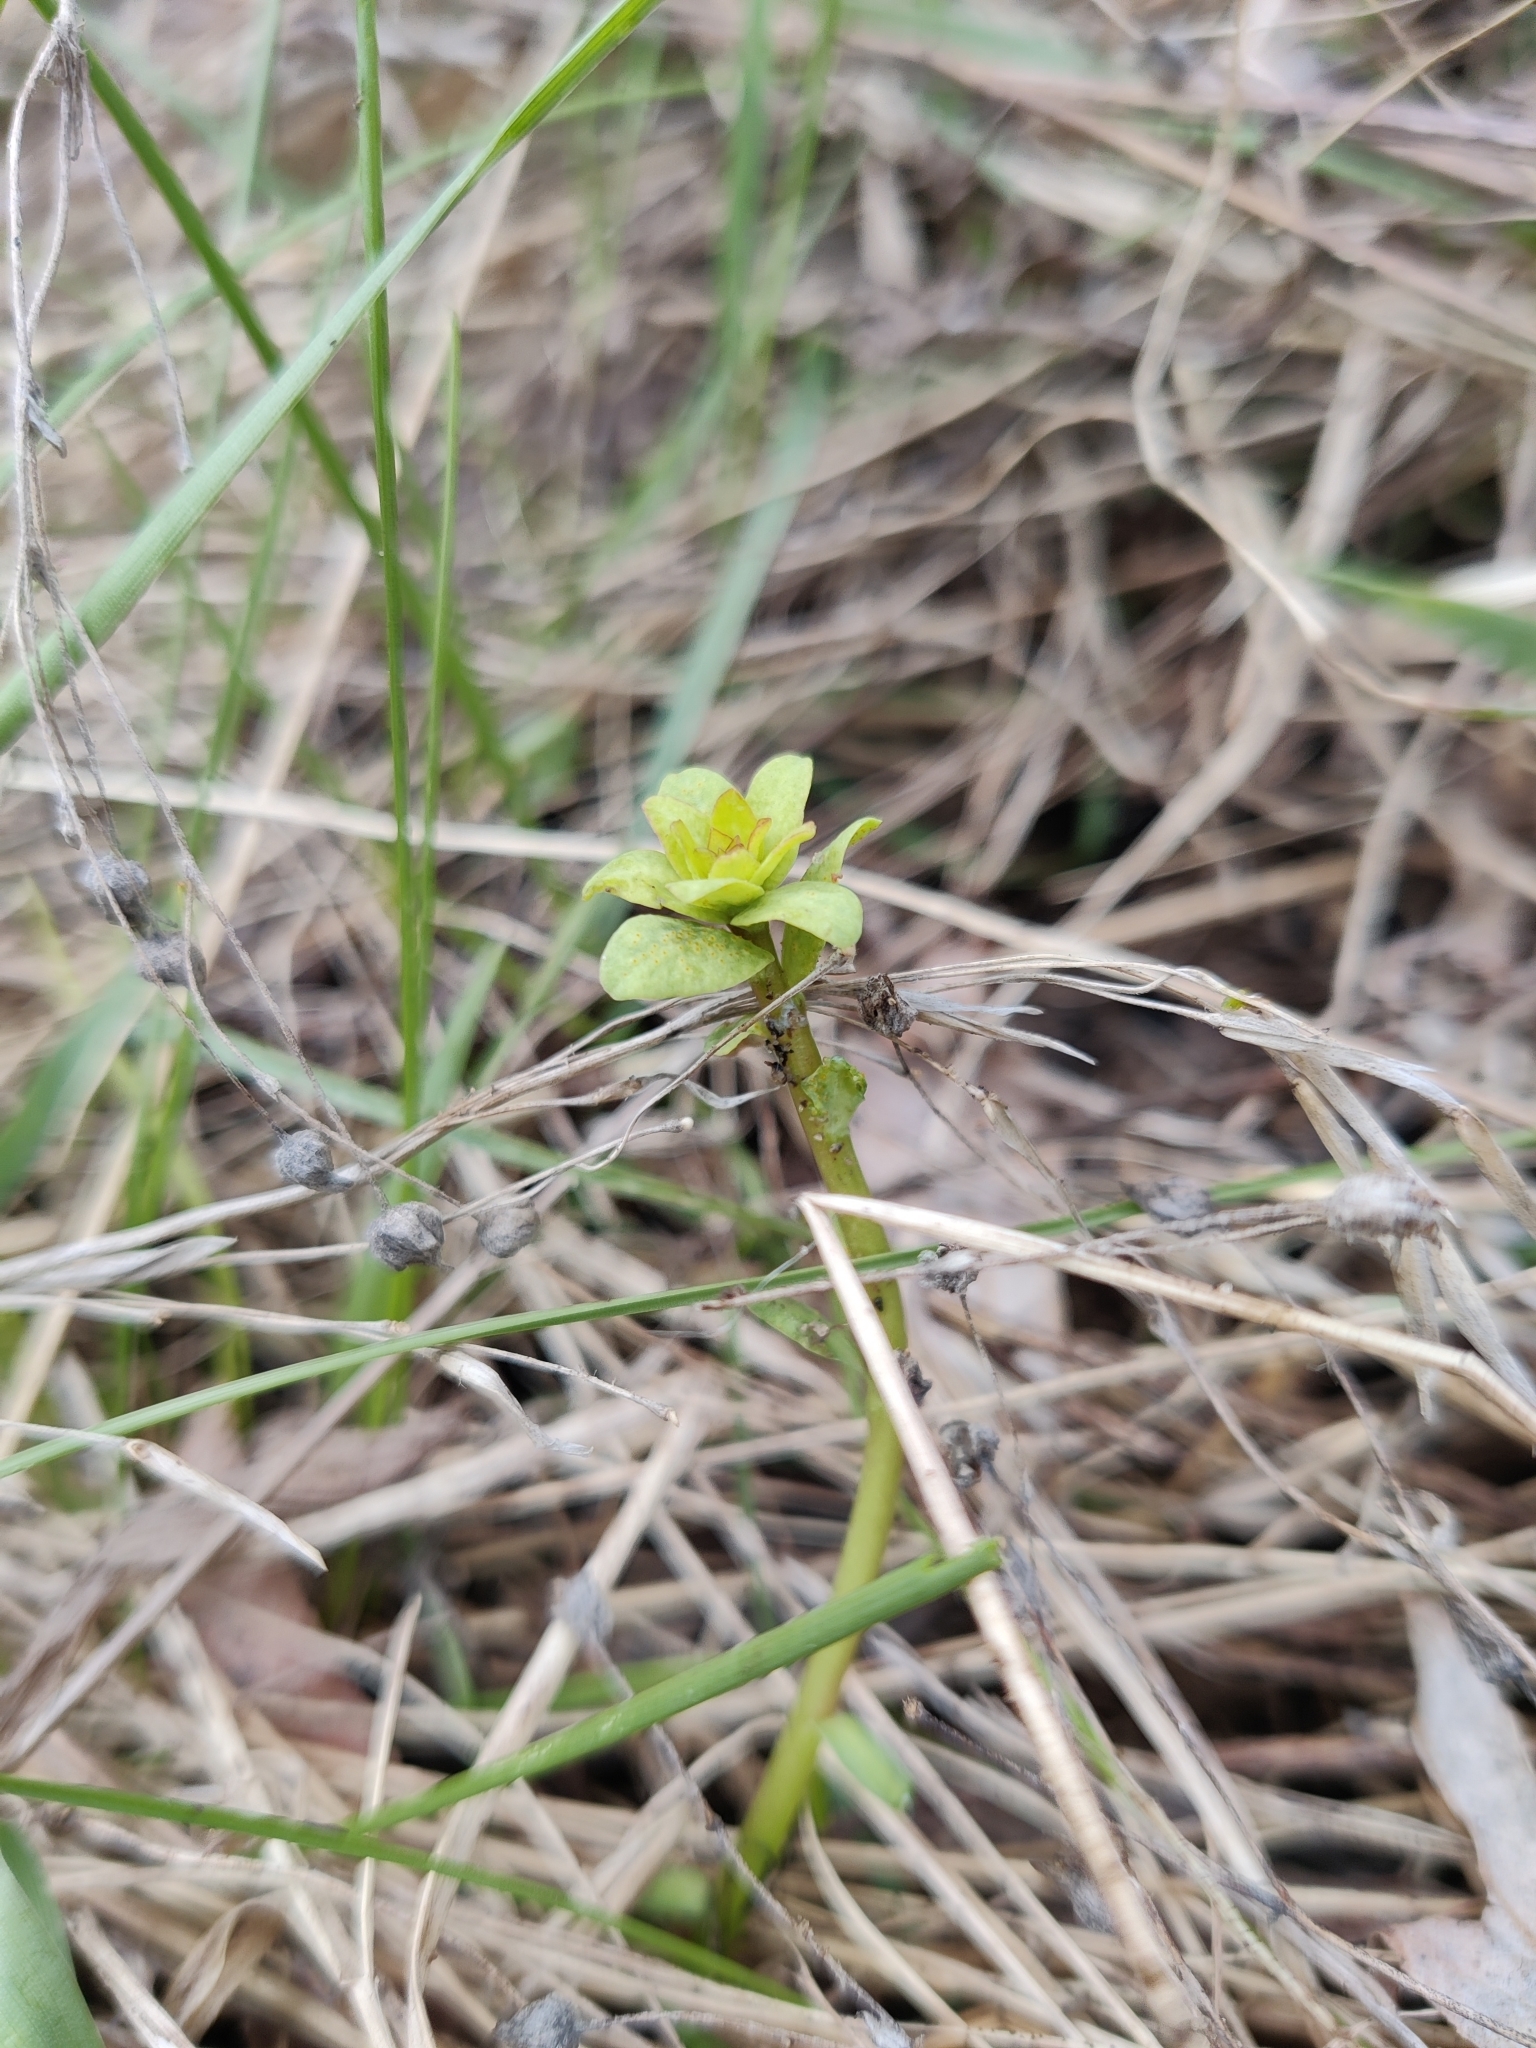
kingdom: Plantae
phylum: Tracheophyta
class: Magnoliopsida
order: Malpighiales
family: Euphorbiaceae
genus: Euphorbia
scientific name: Euphorbia virgata
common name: Leafy spurge
